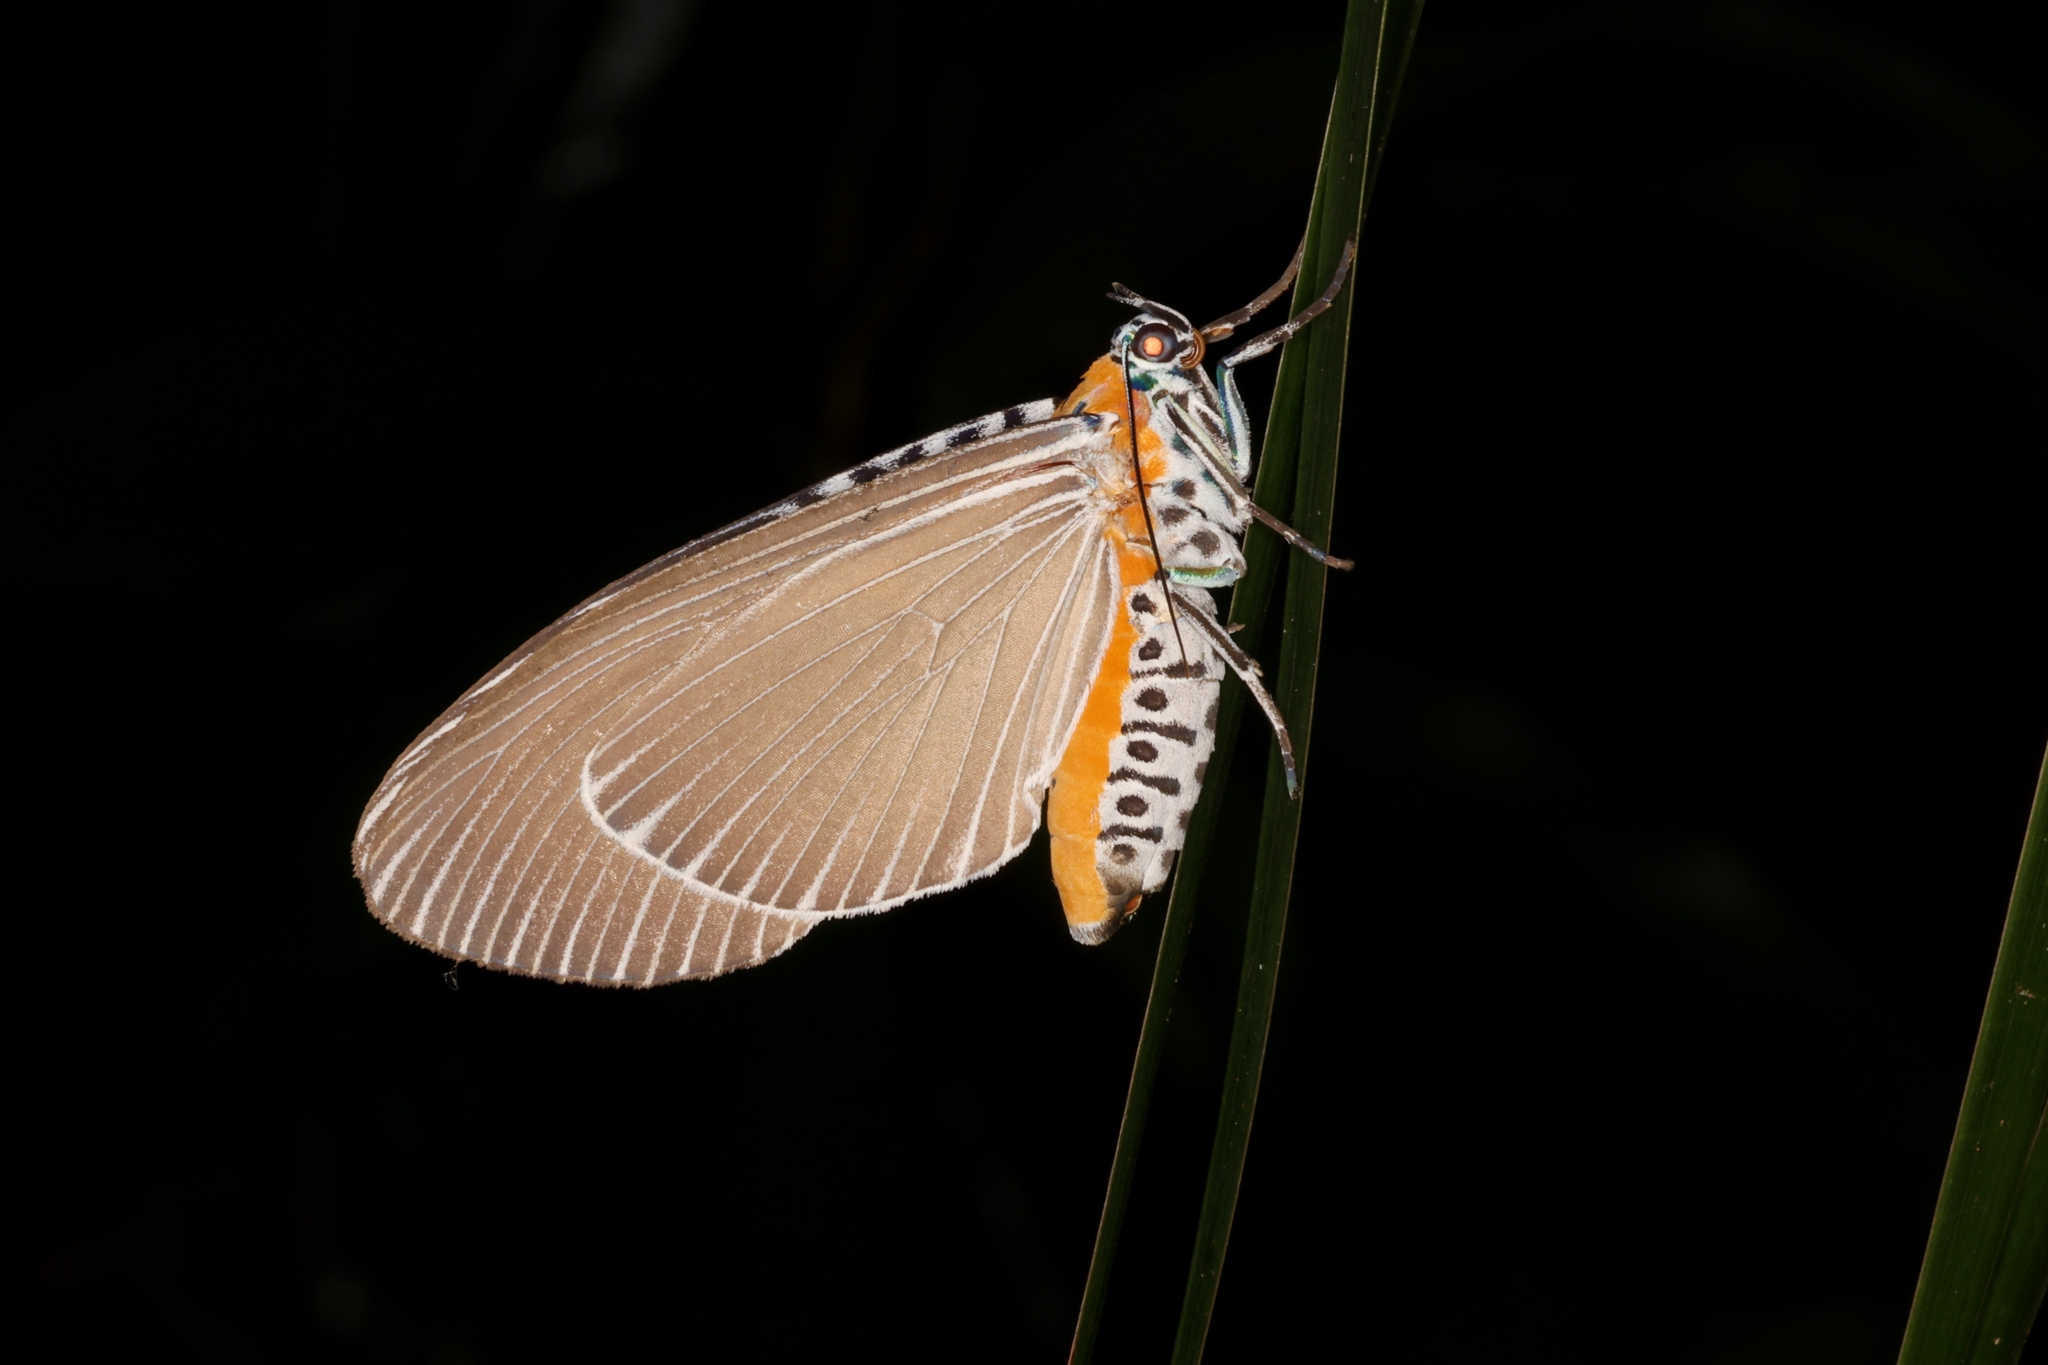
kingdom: Animalia
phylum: Arthropoda
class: Insecta
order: Lepidoptera
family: Erebidae
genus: Euplocia
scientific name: Euplocia membliaria
